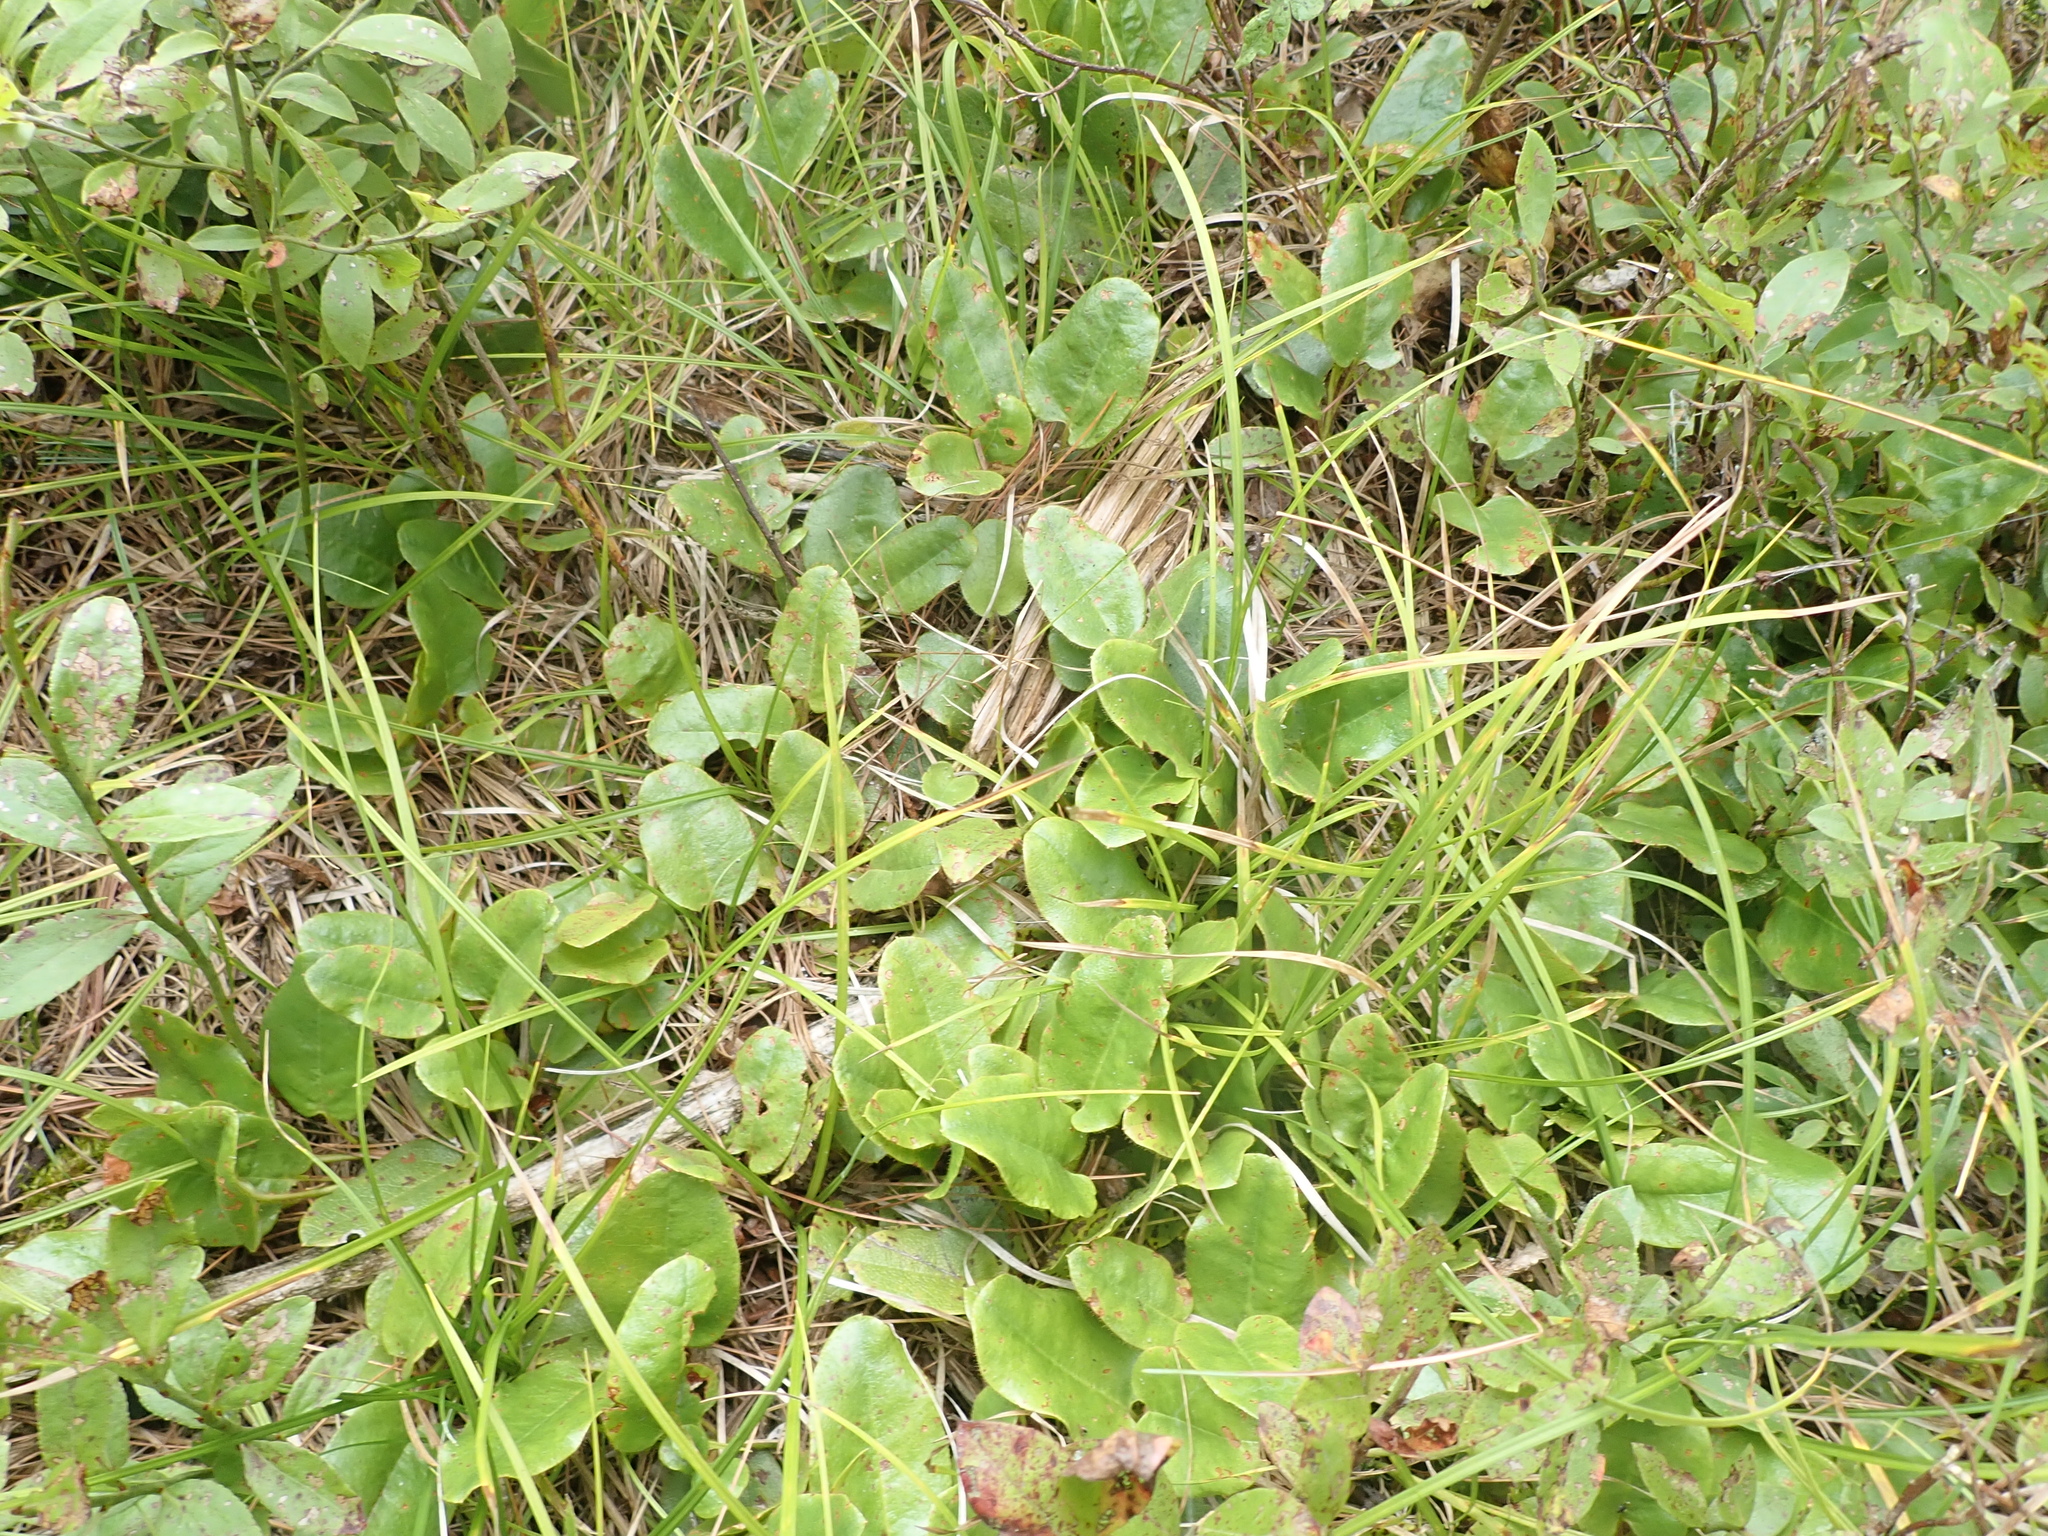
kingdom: Plantae
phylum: Tracheophyta
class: Magnoliopsida
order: Ericales
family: Ericaceae
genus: Epigaea
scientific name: Epigaea repens
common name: Gravelroot
